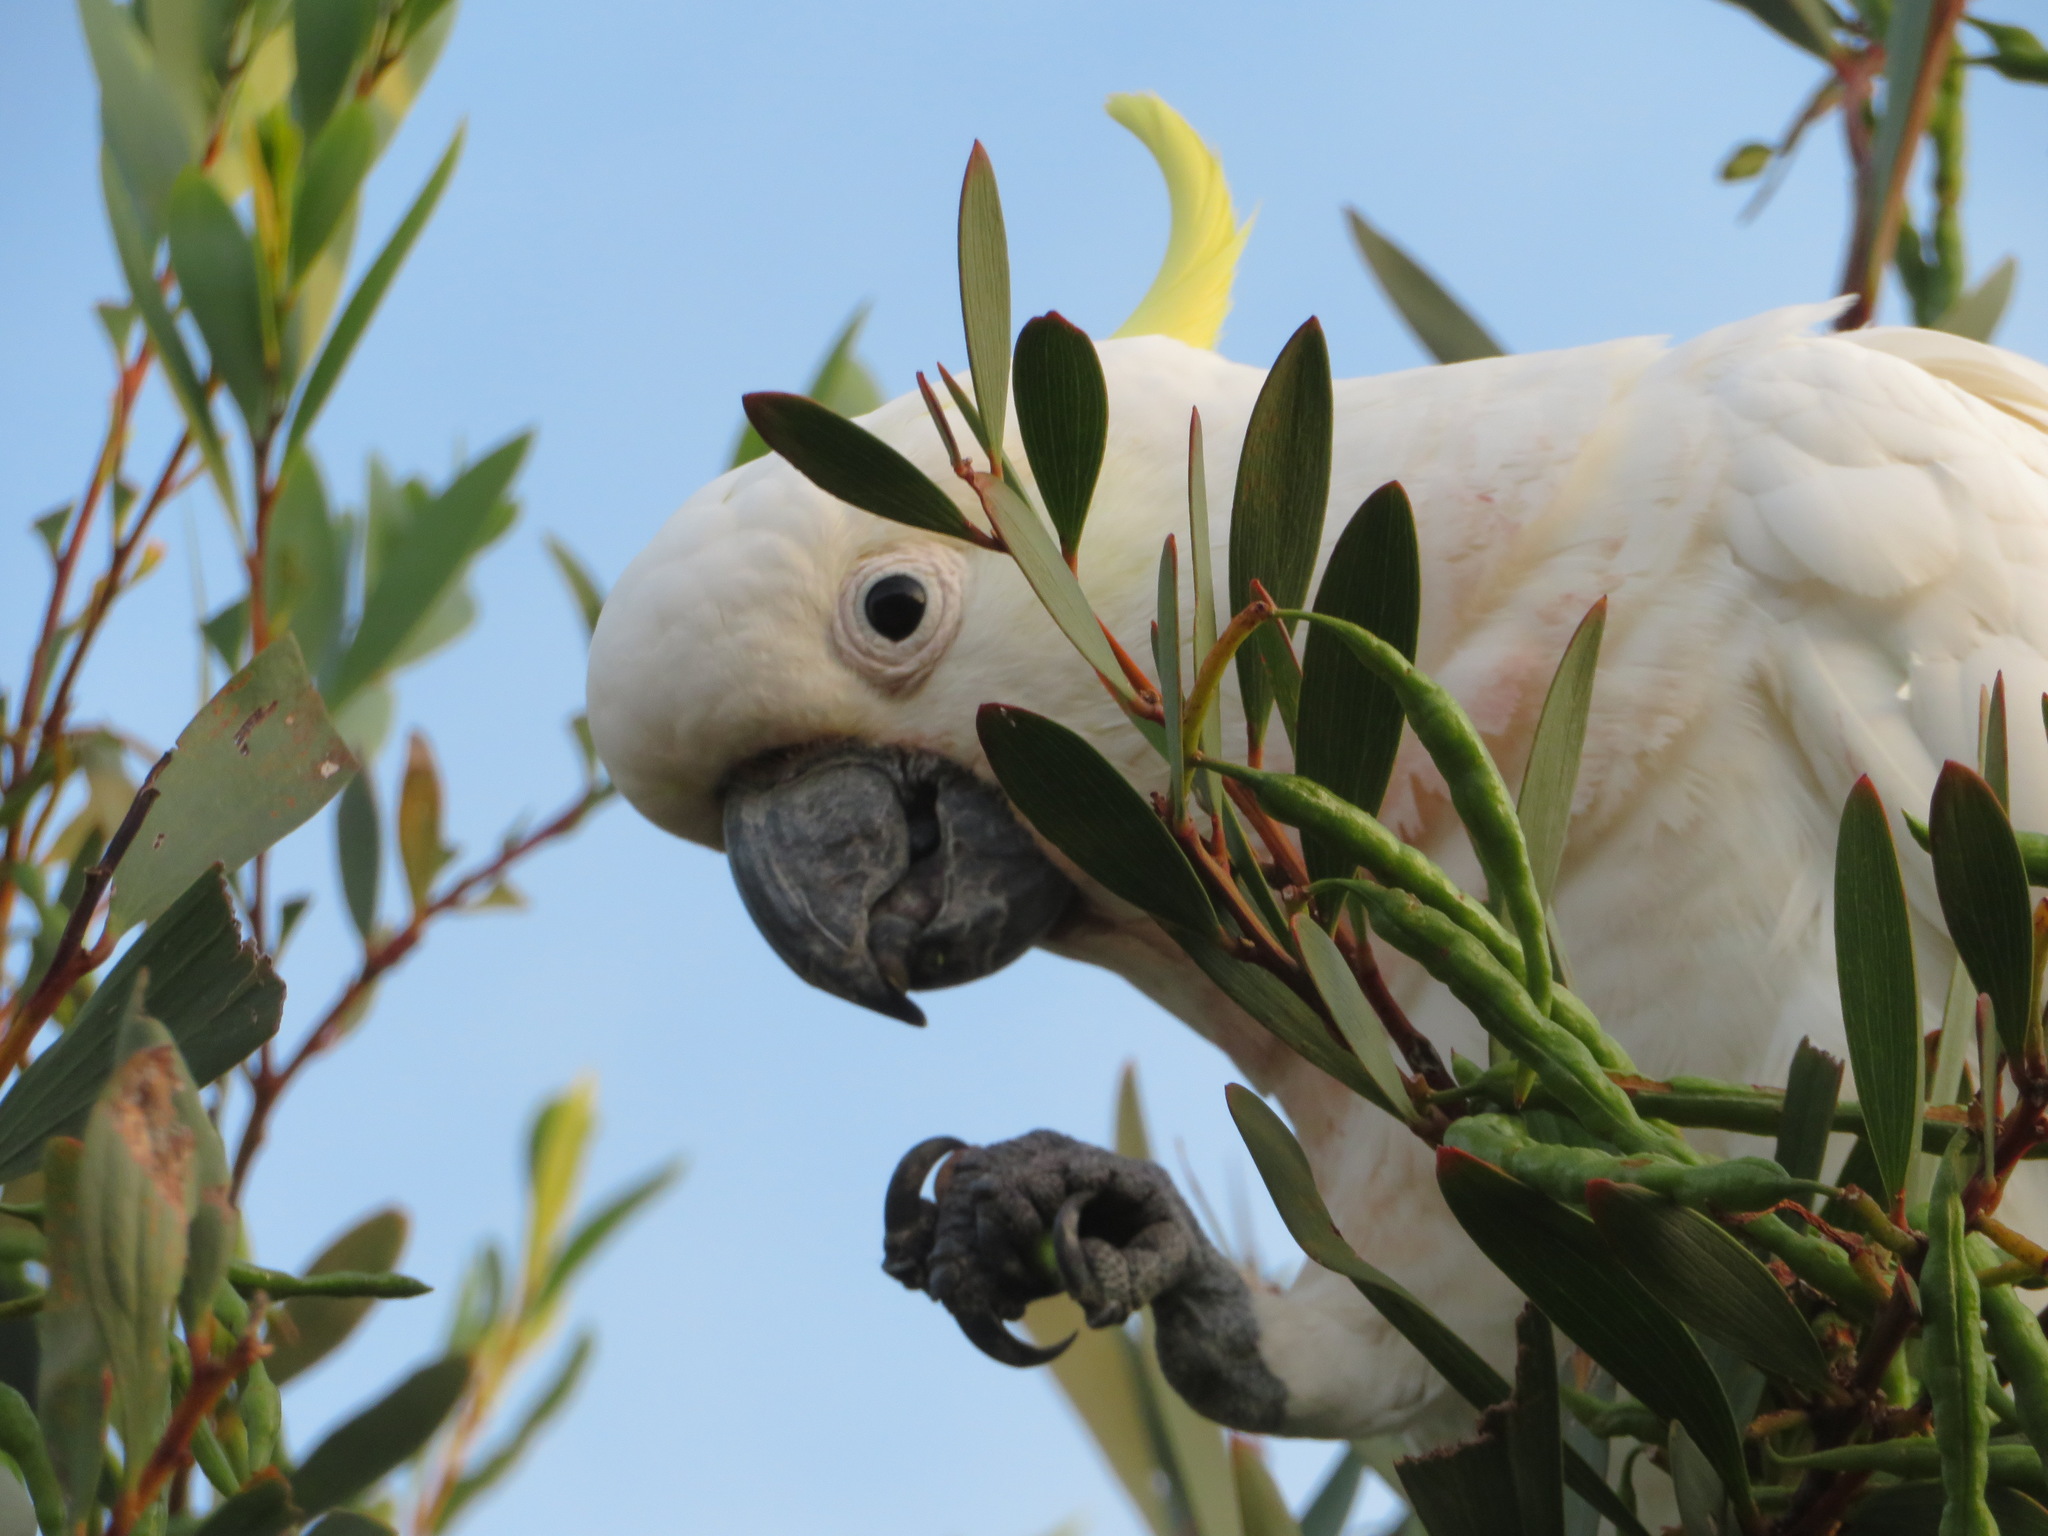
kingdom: Animalia
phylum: Chordata
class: Aves
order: Psittaciformes
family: Psittacidae
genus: Cacatua
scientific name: Cacatua galerita
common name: Sulphur-crested cockatoo
